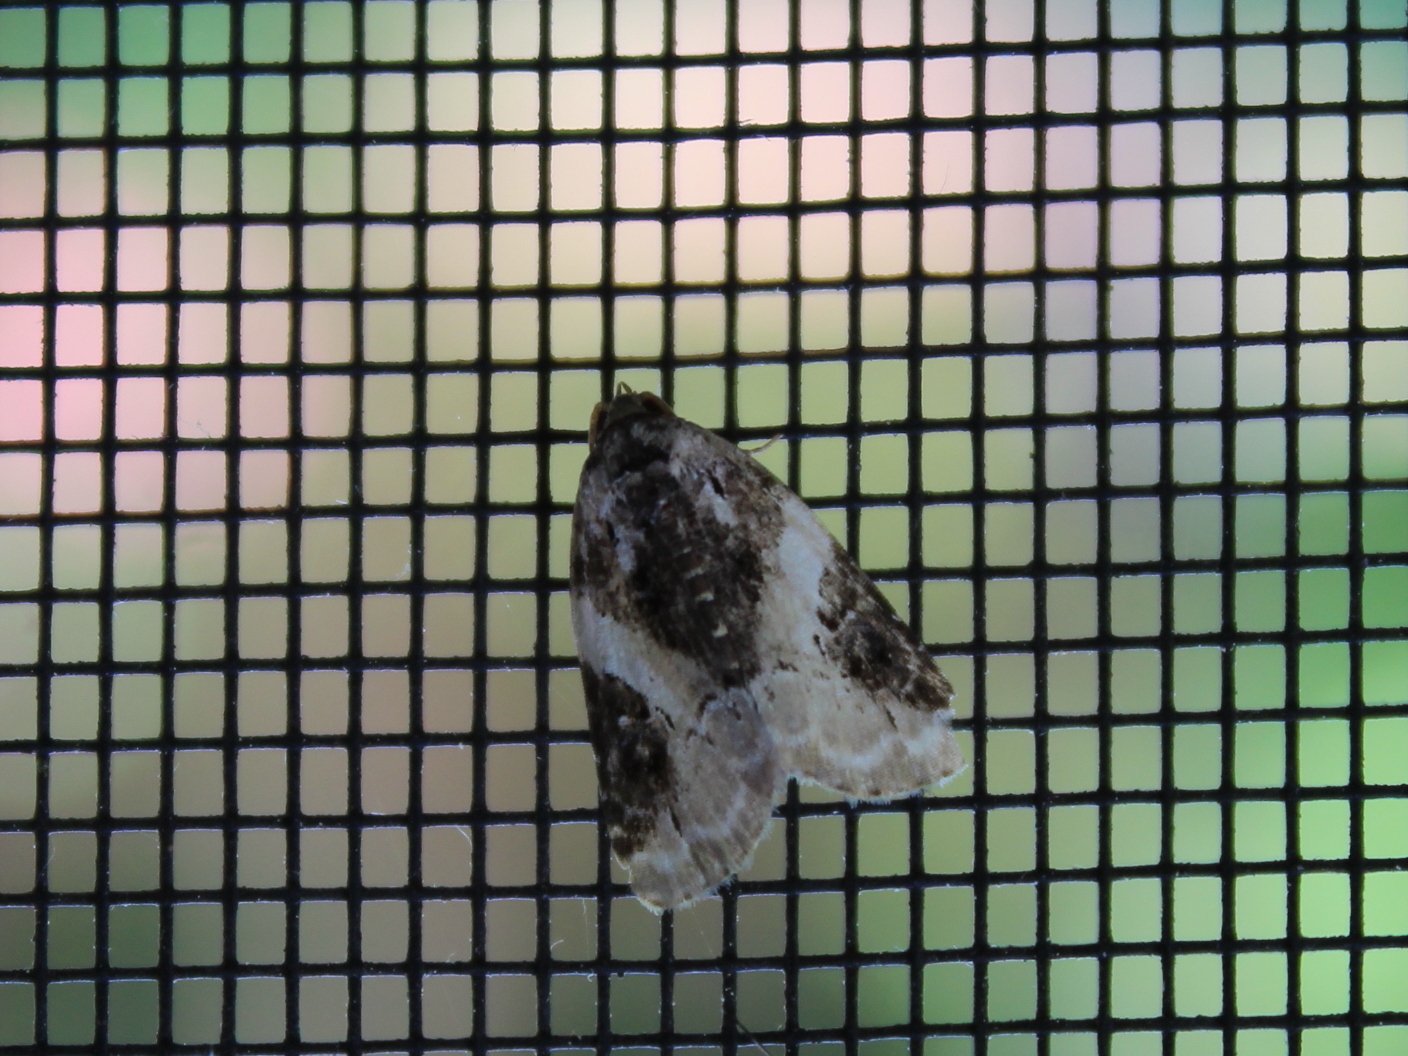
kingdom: Animalia
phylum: Arthropoda
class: Insecta
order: Lepidoptera
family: Noctuidae
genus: Pseudeustrotia
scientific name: Pseudeustrotia carneola
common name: Pink-barred lithacodia moth
